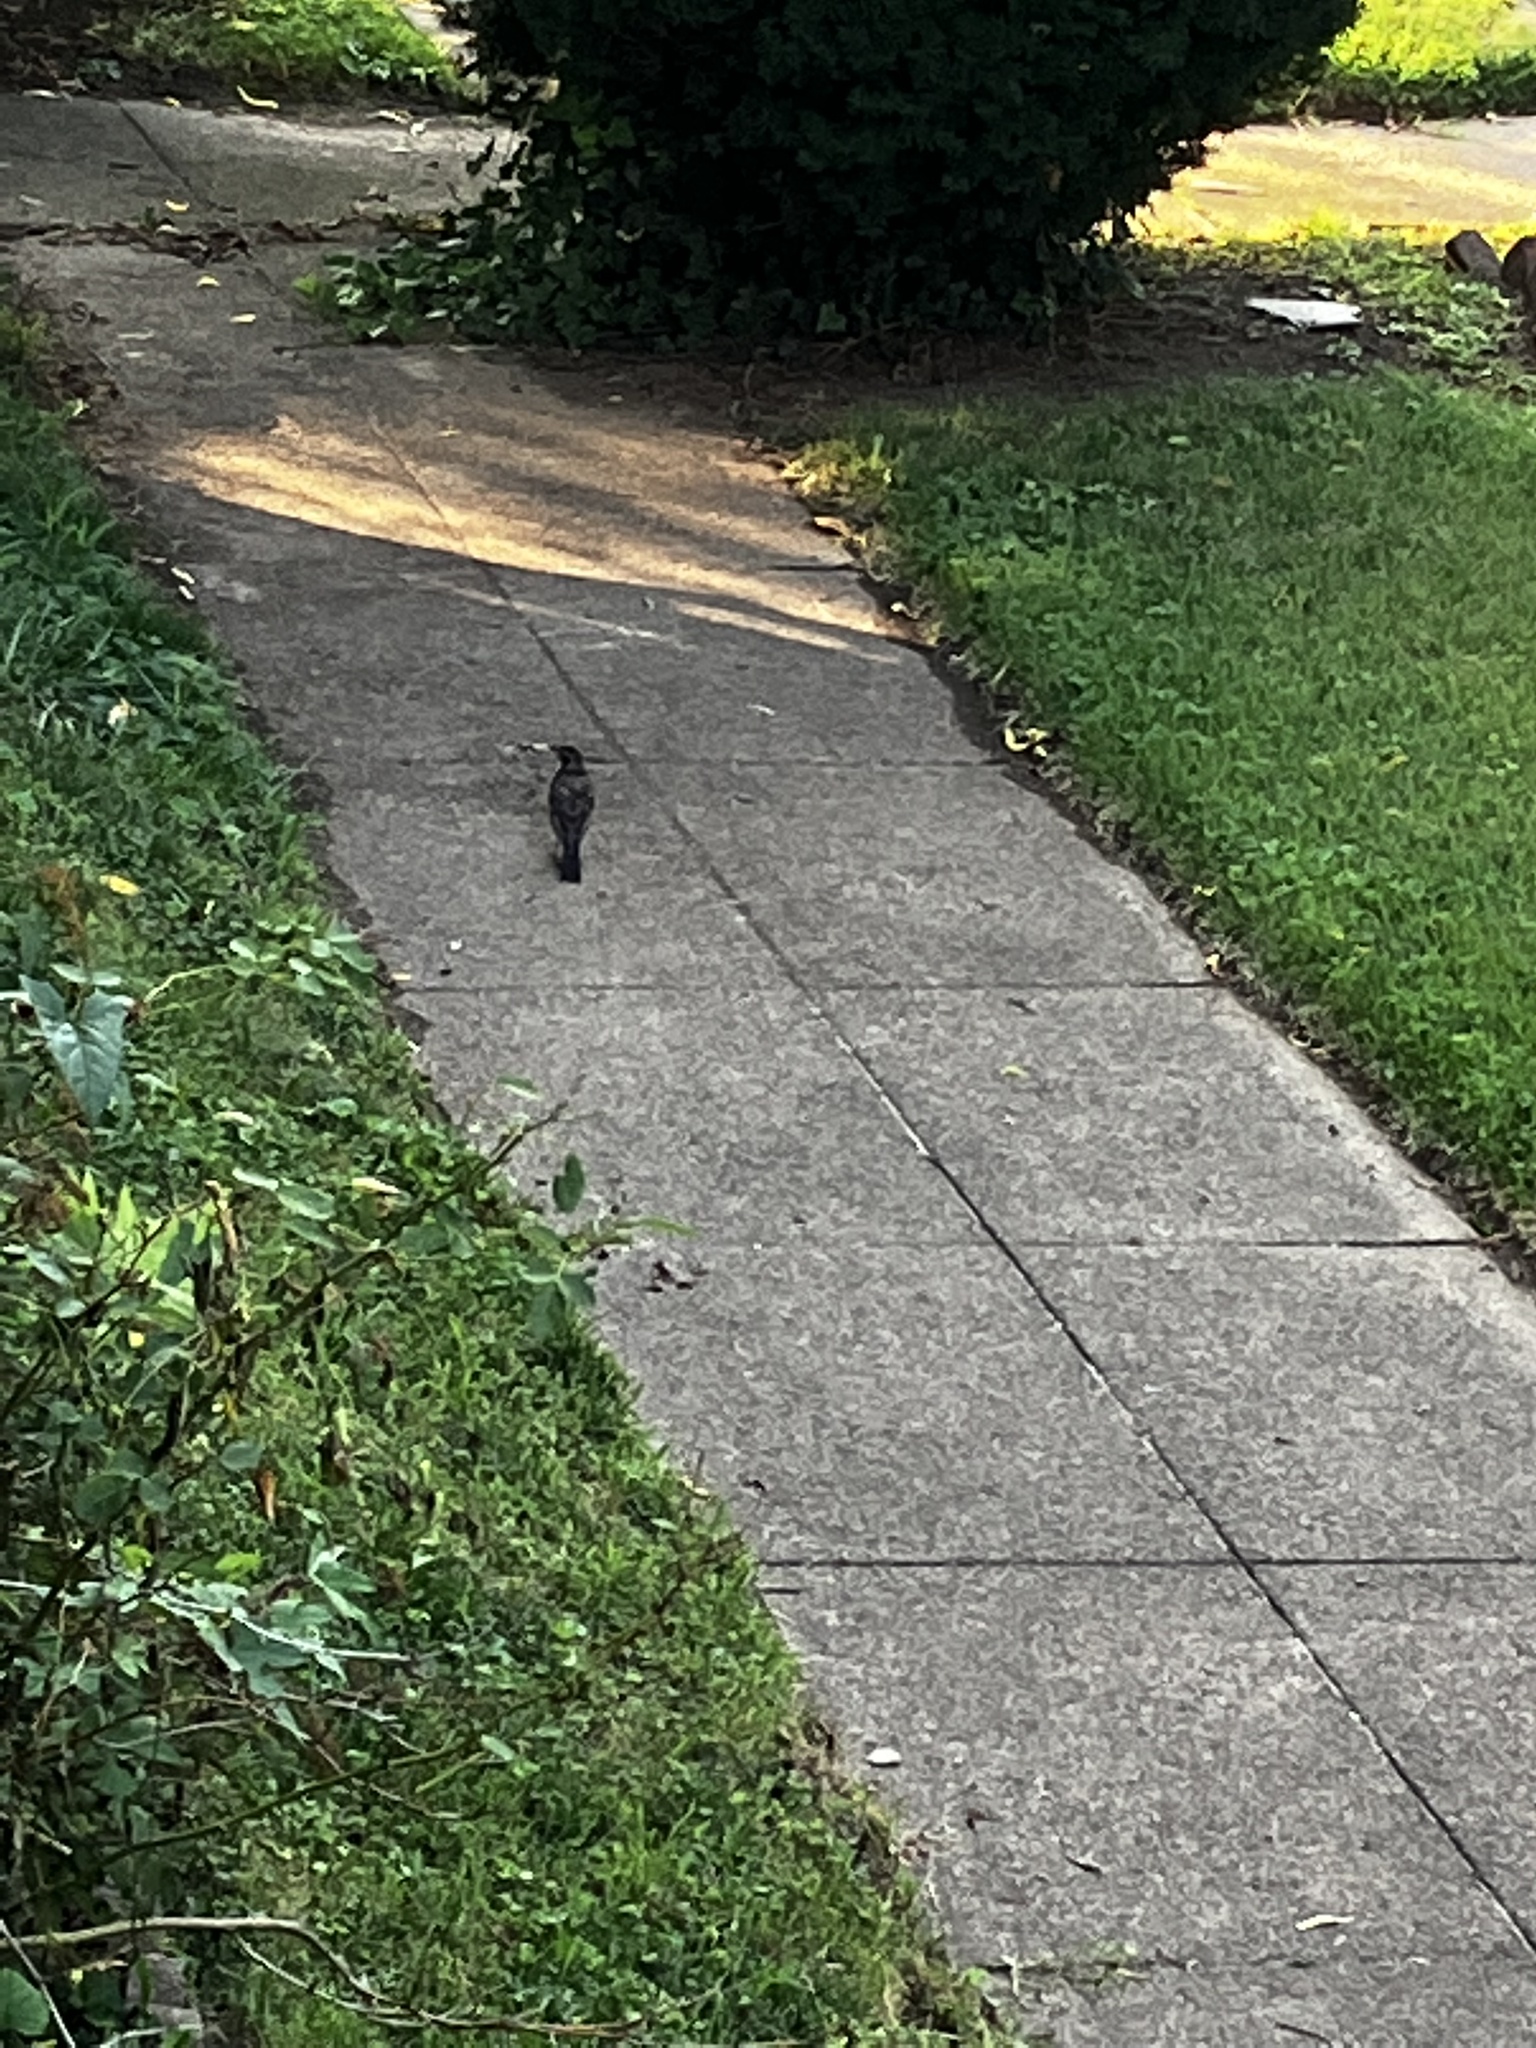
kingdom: Animalia
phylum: Chordata
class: Aves
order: Passeriformes
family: Turdidae
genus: Turdus
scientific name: Turdus migratorius
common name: American robin
